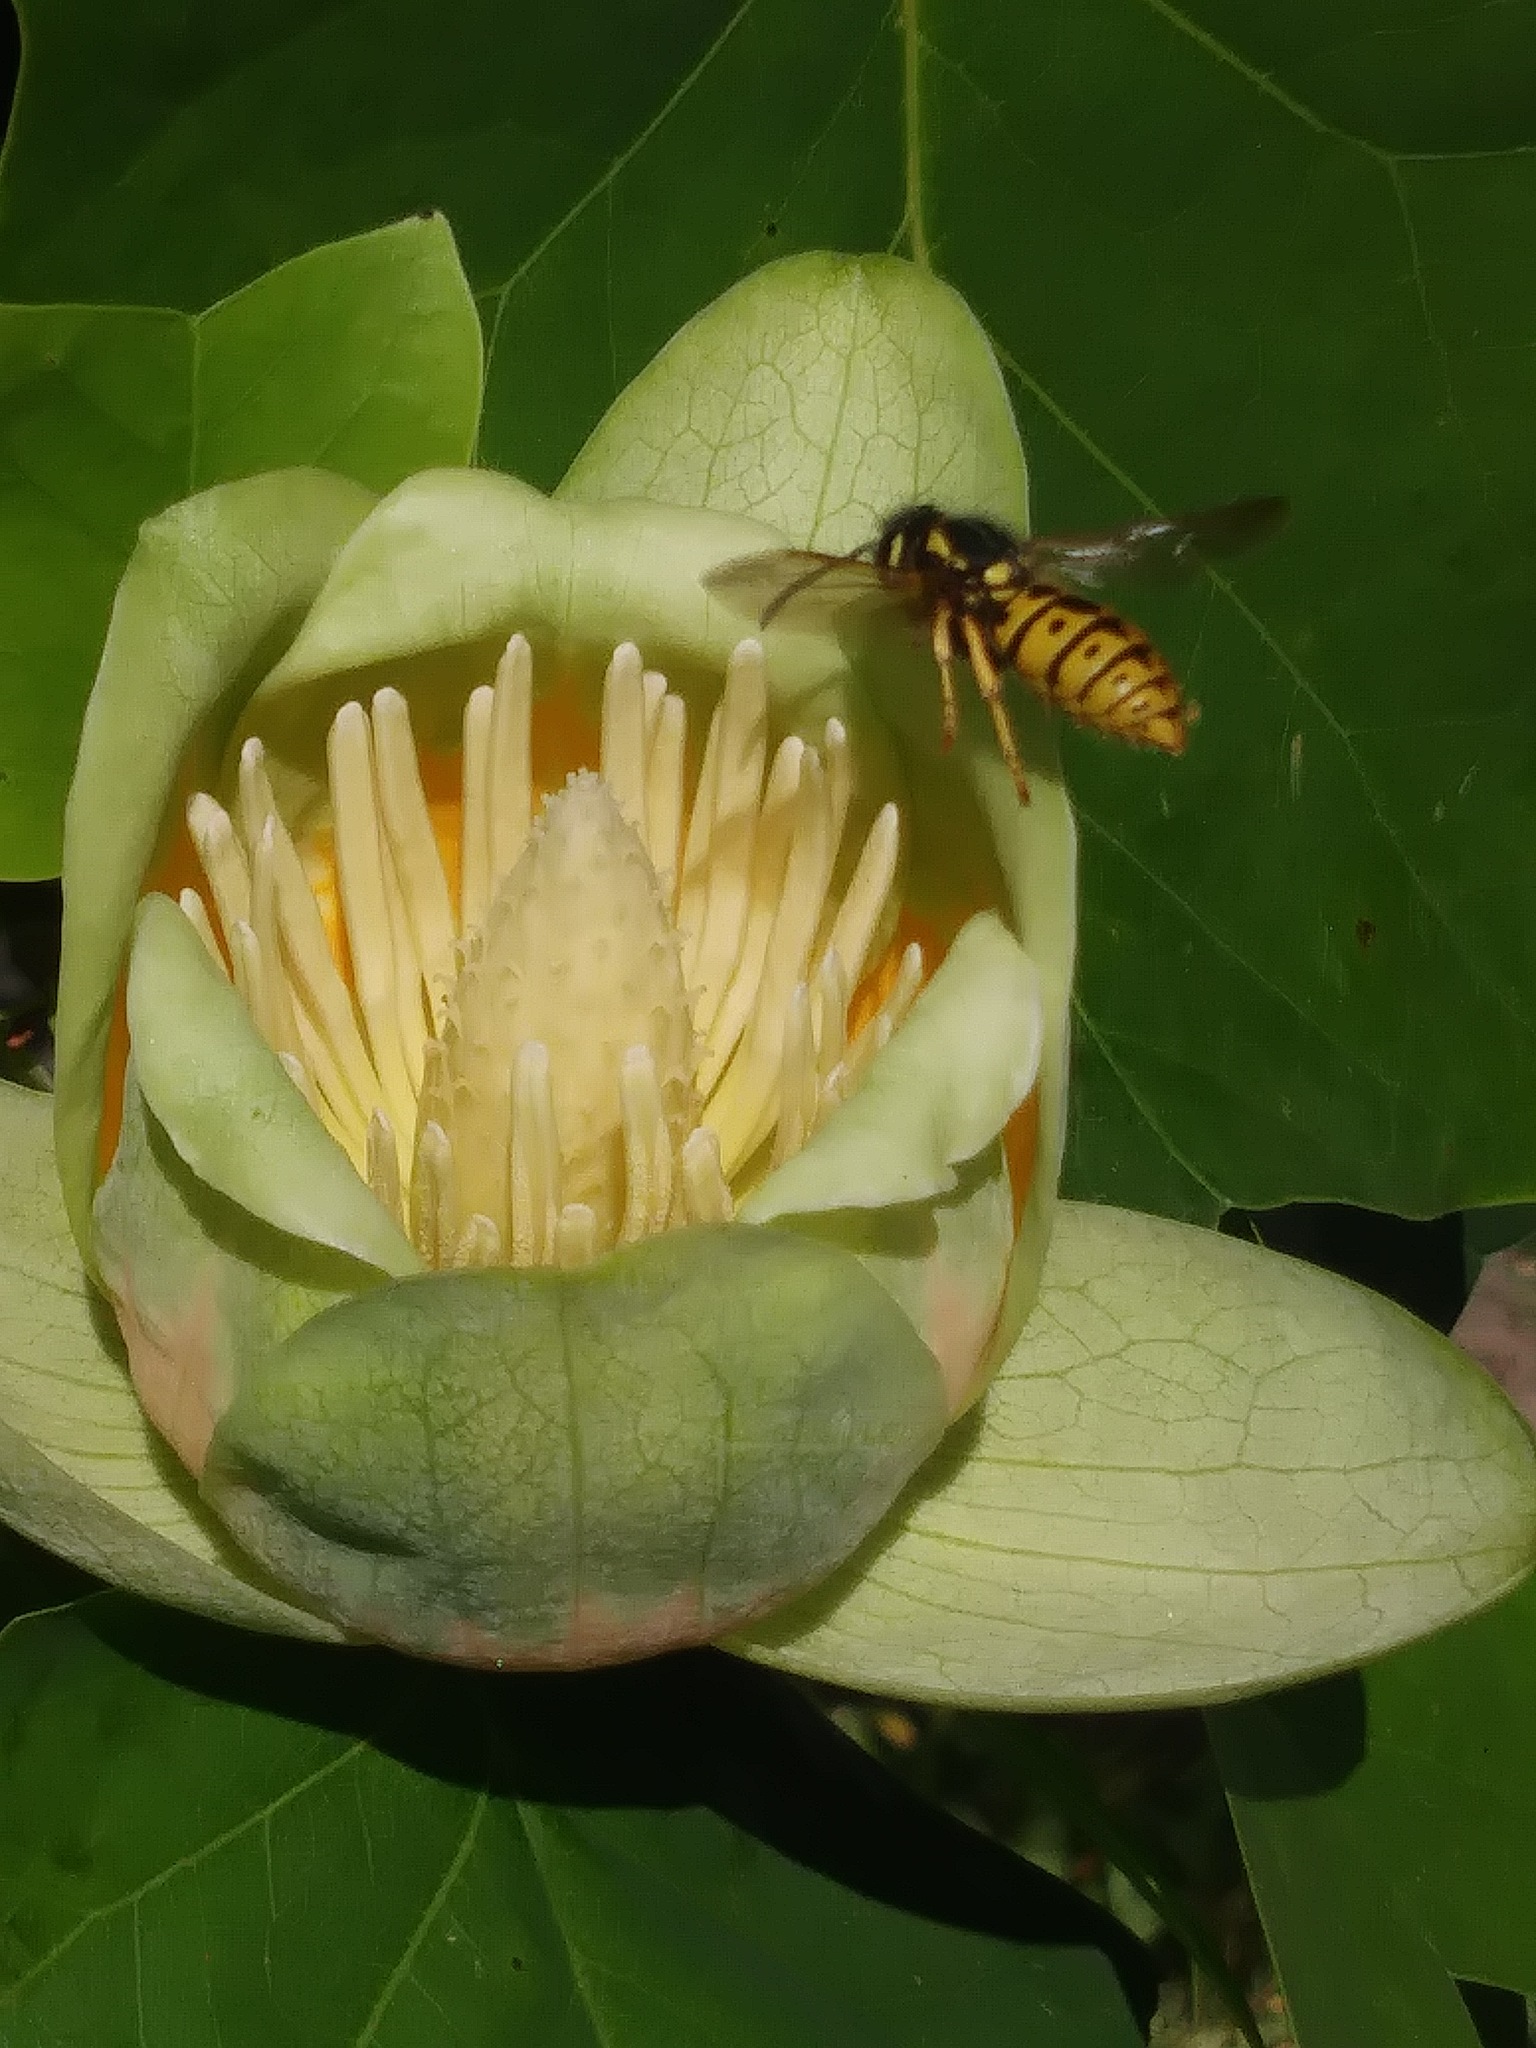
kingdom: Animalia
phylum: Arthropoda
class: Insecta
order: Hymenoptera
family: Vespidae
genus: Vespula
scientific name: Vespula germanica
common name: German wasp
